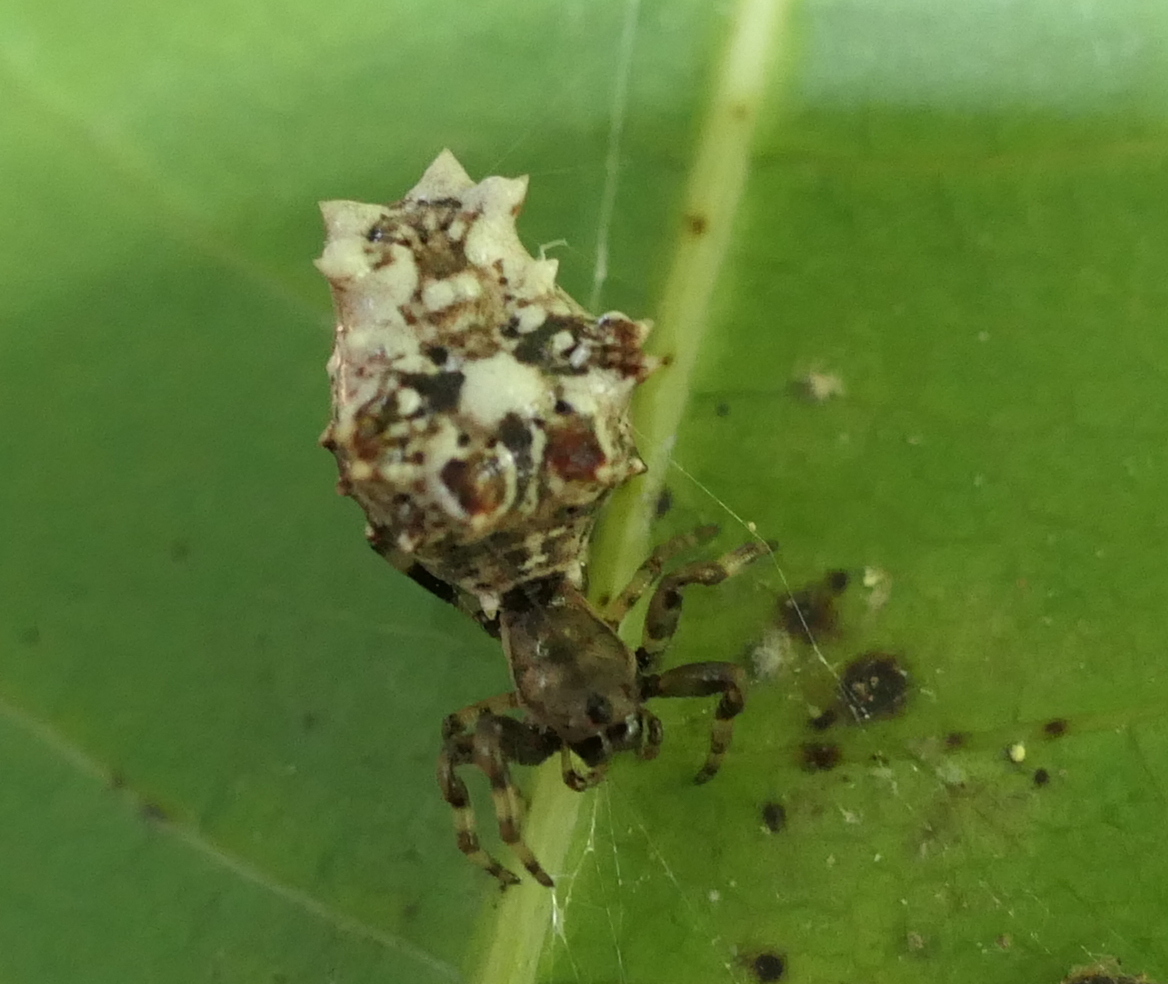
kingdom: Animalia
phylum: Arthropoda
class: Arachnida
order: Araneae
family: Araneidae
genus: Micrathena
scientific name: Micrathena horrida
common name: Orb weavers
